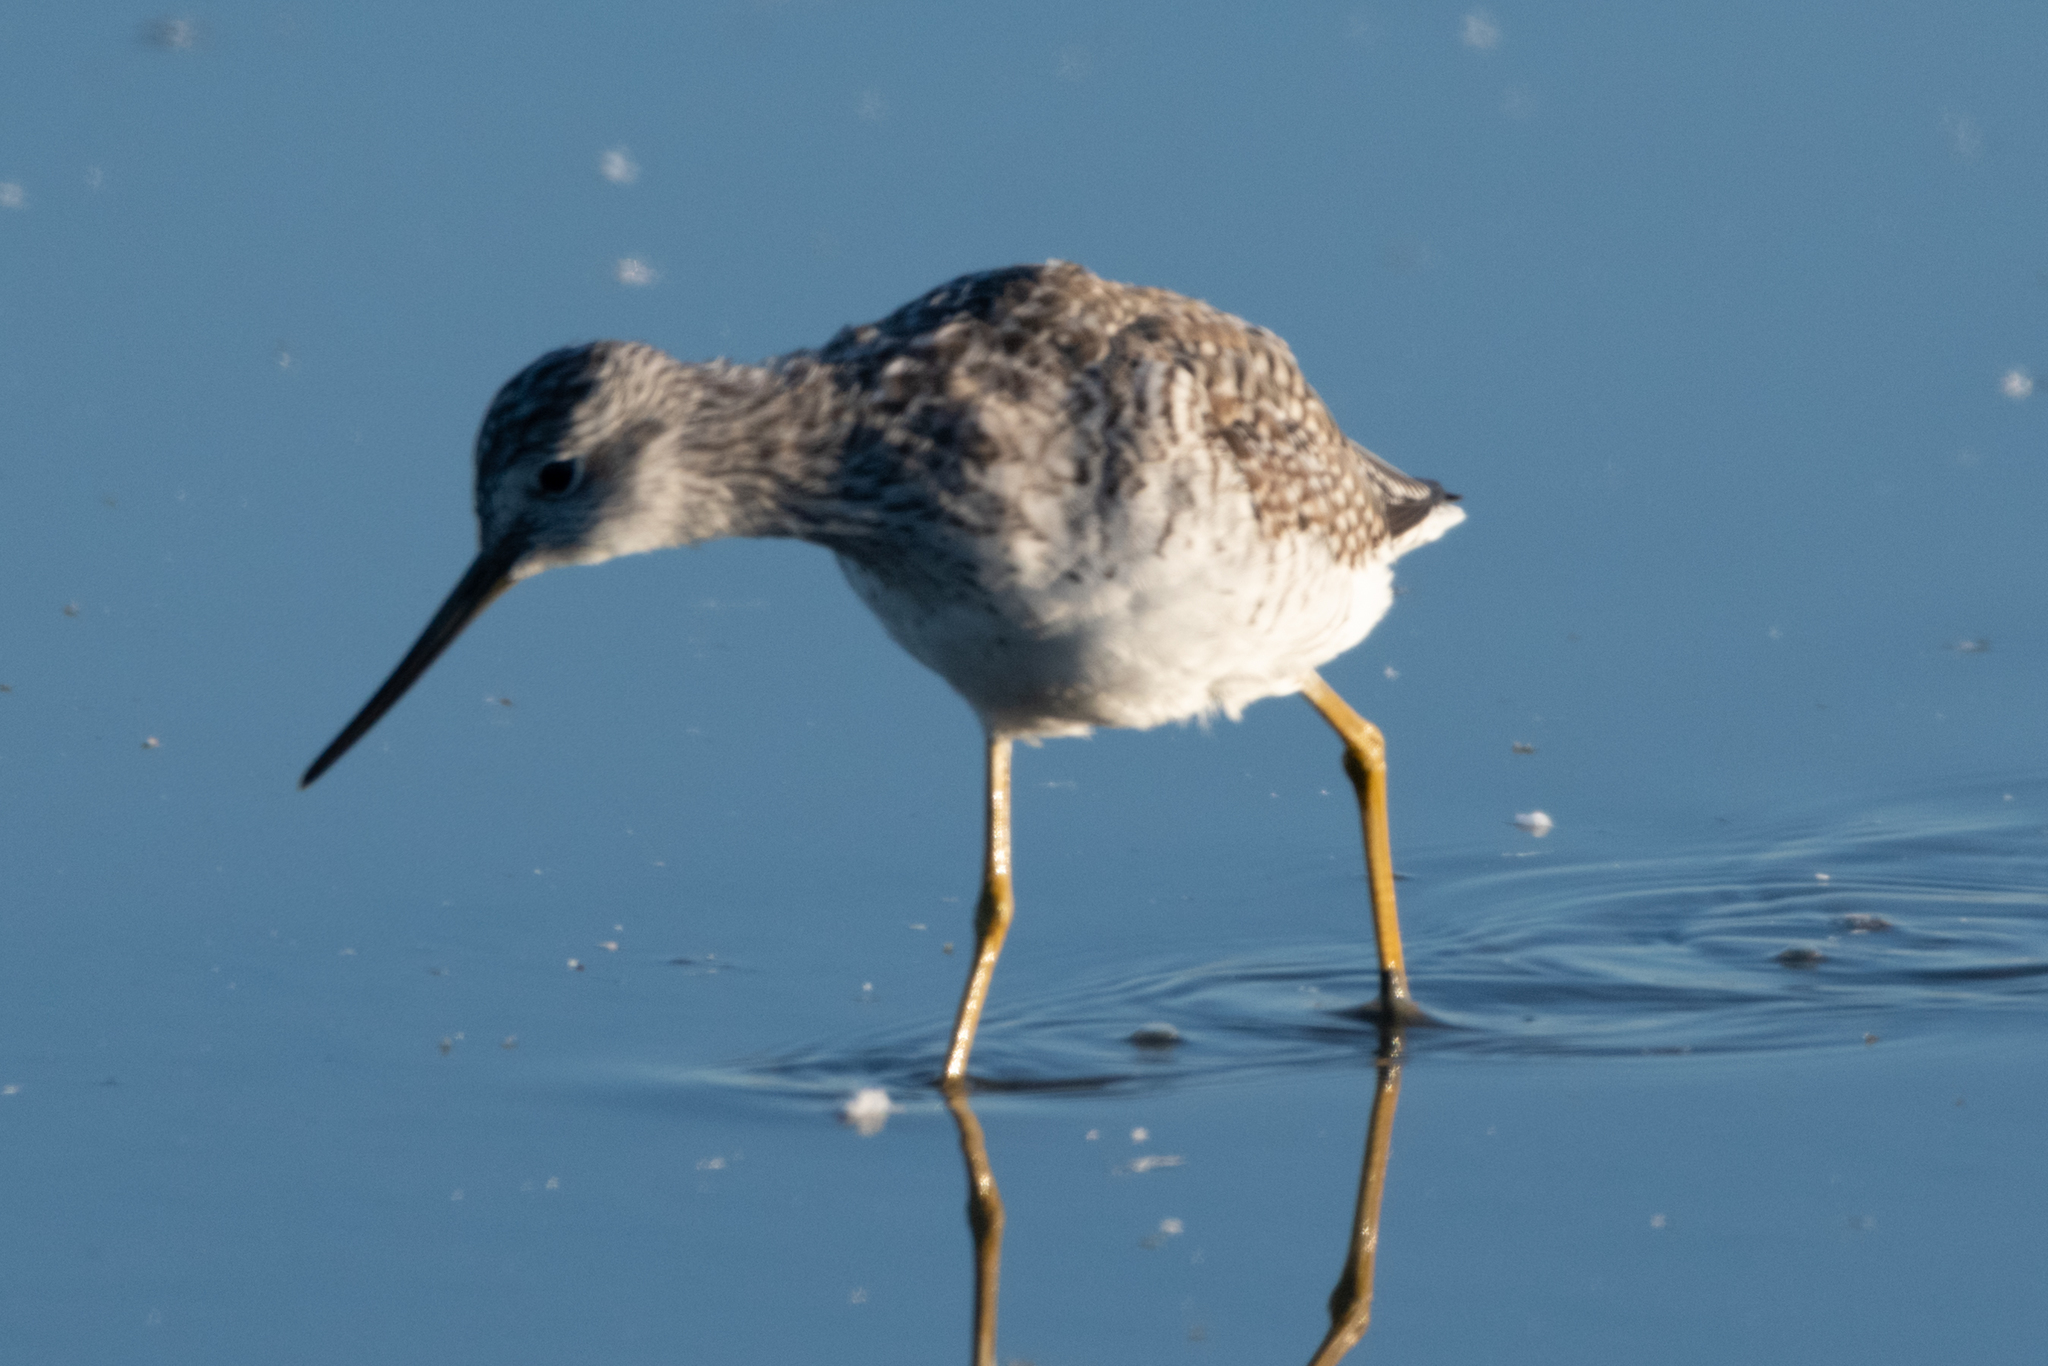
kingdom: Animalia
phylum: Chordata
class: Aves
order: Charadriiformes
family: Scolopacidae
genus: Tringa
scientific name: Tringa melanoleuca
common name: Greater yellowlegs
